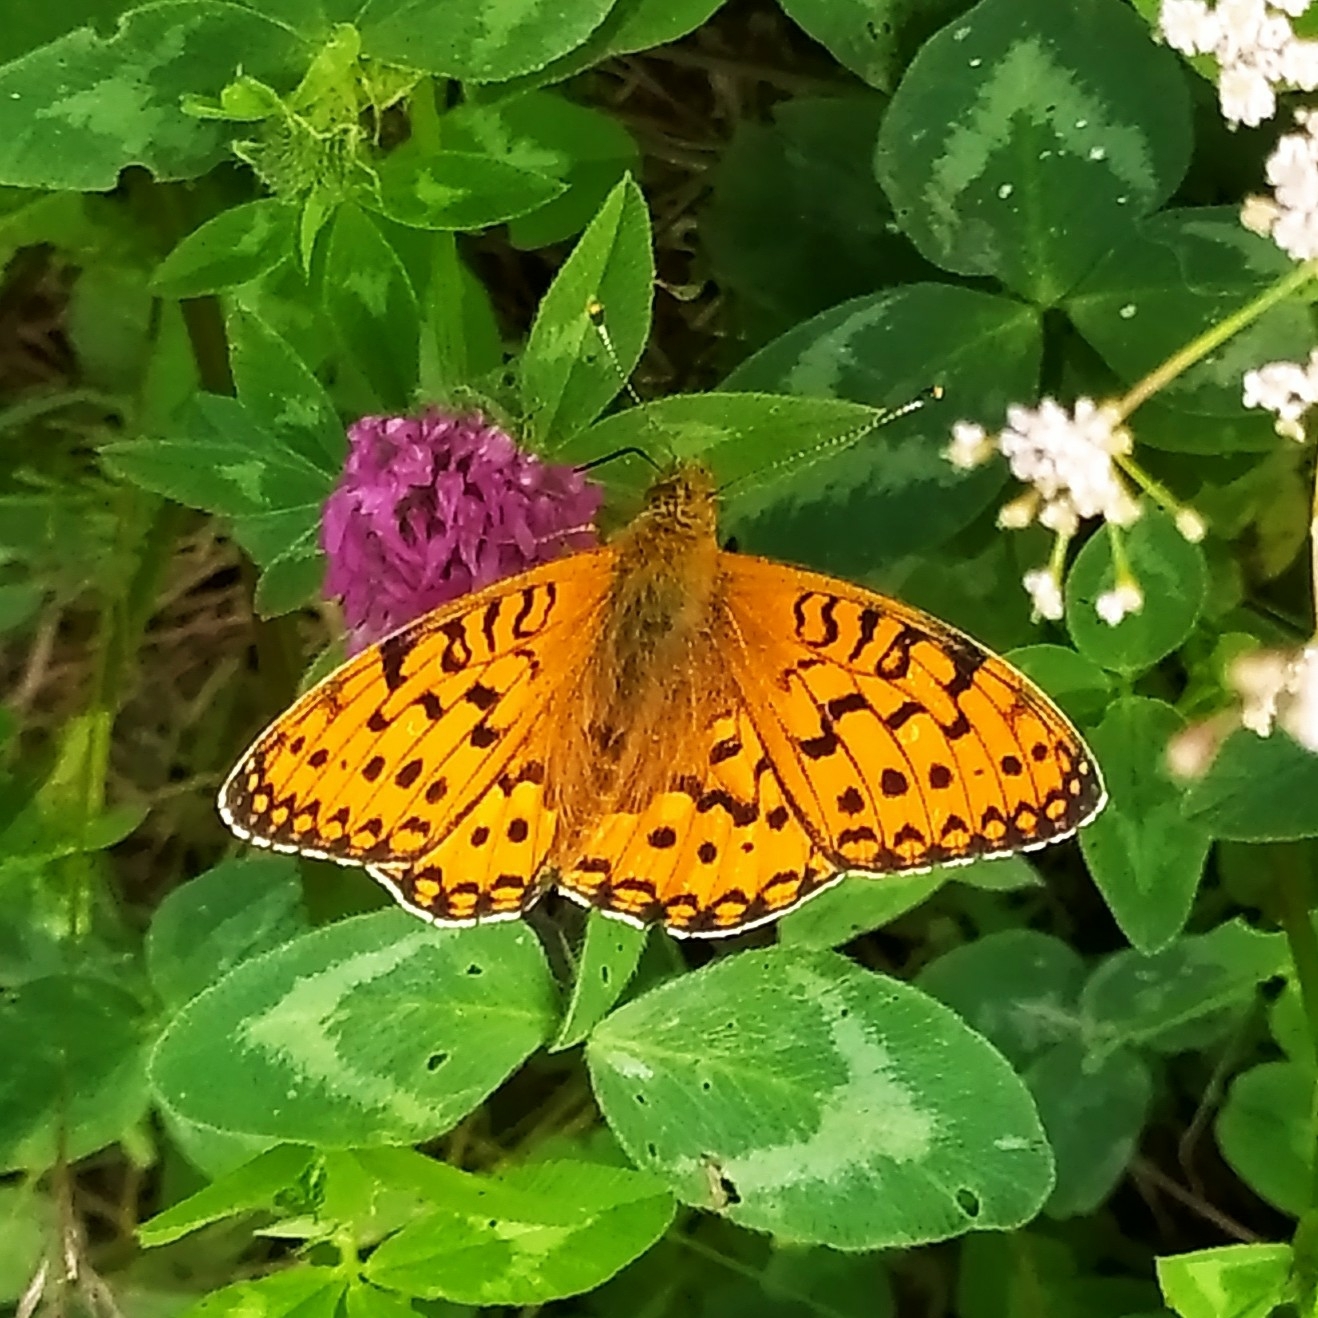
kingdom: Animalia
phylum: Arthropoda
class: Insecta
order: Lepidoptera
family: Nymphalidae
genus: Speyeria
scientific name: Speyeria aglaja
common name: Dark green fritillary
